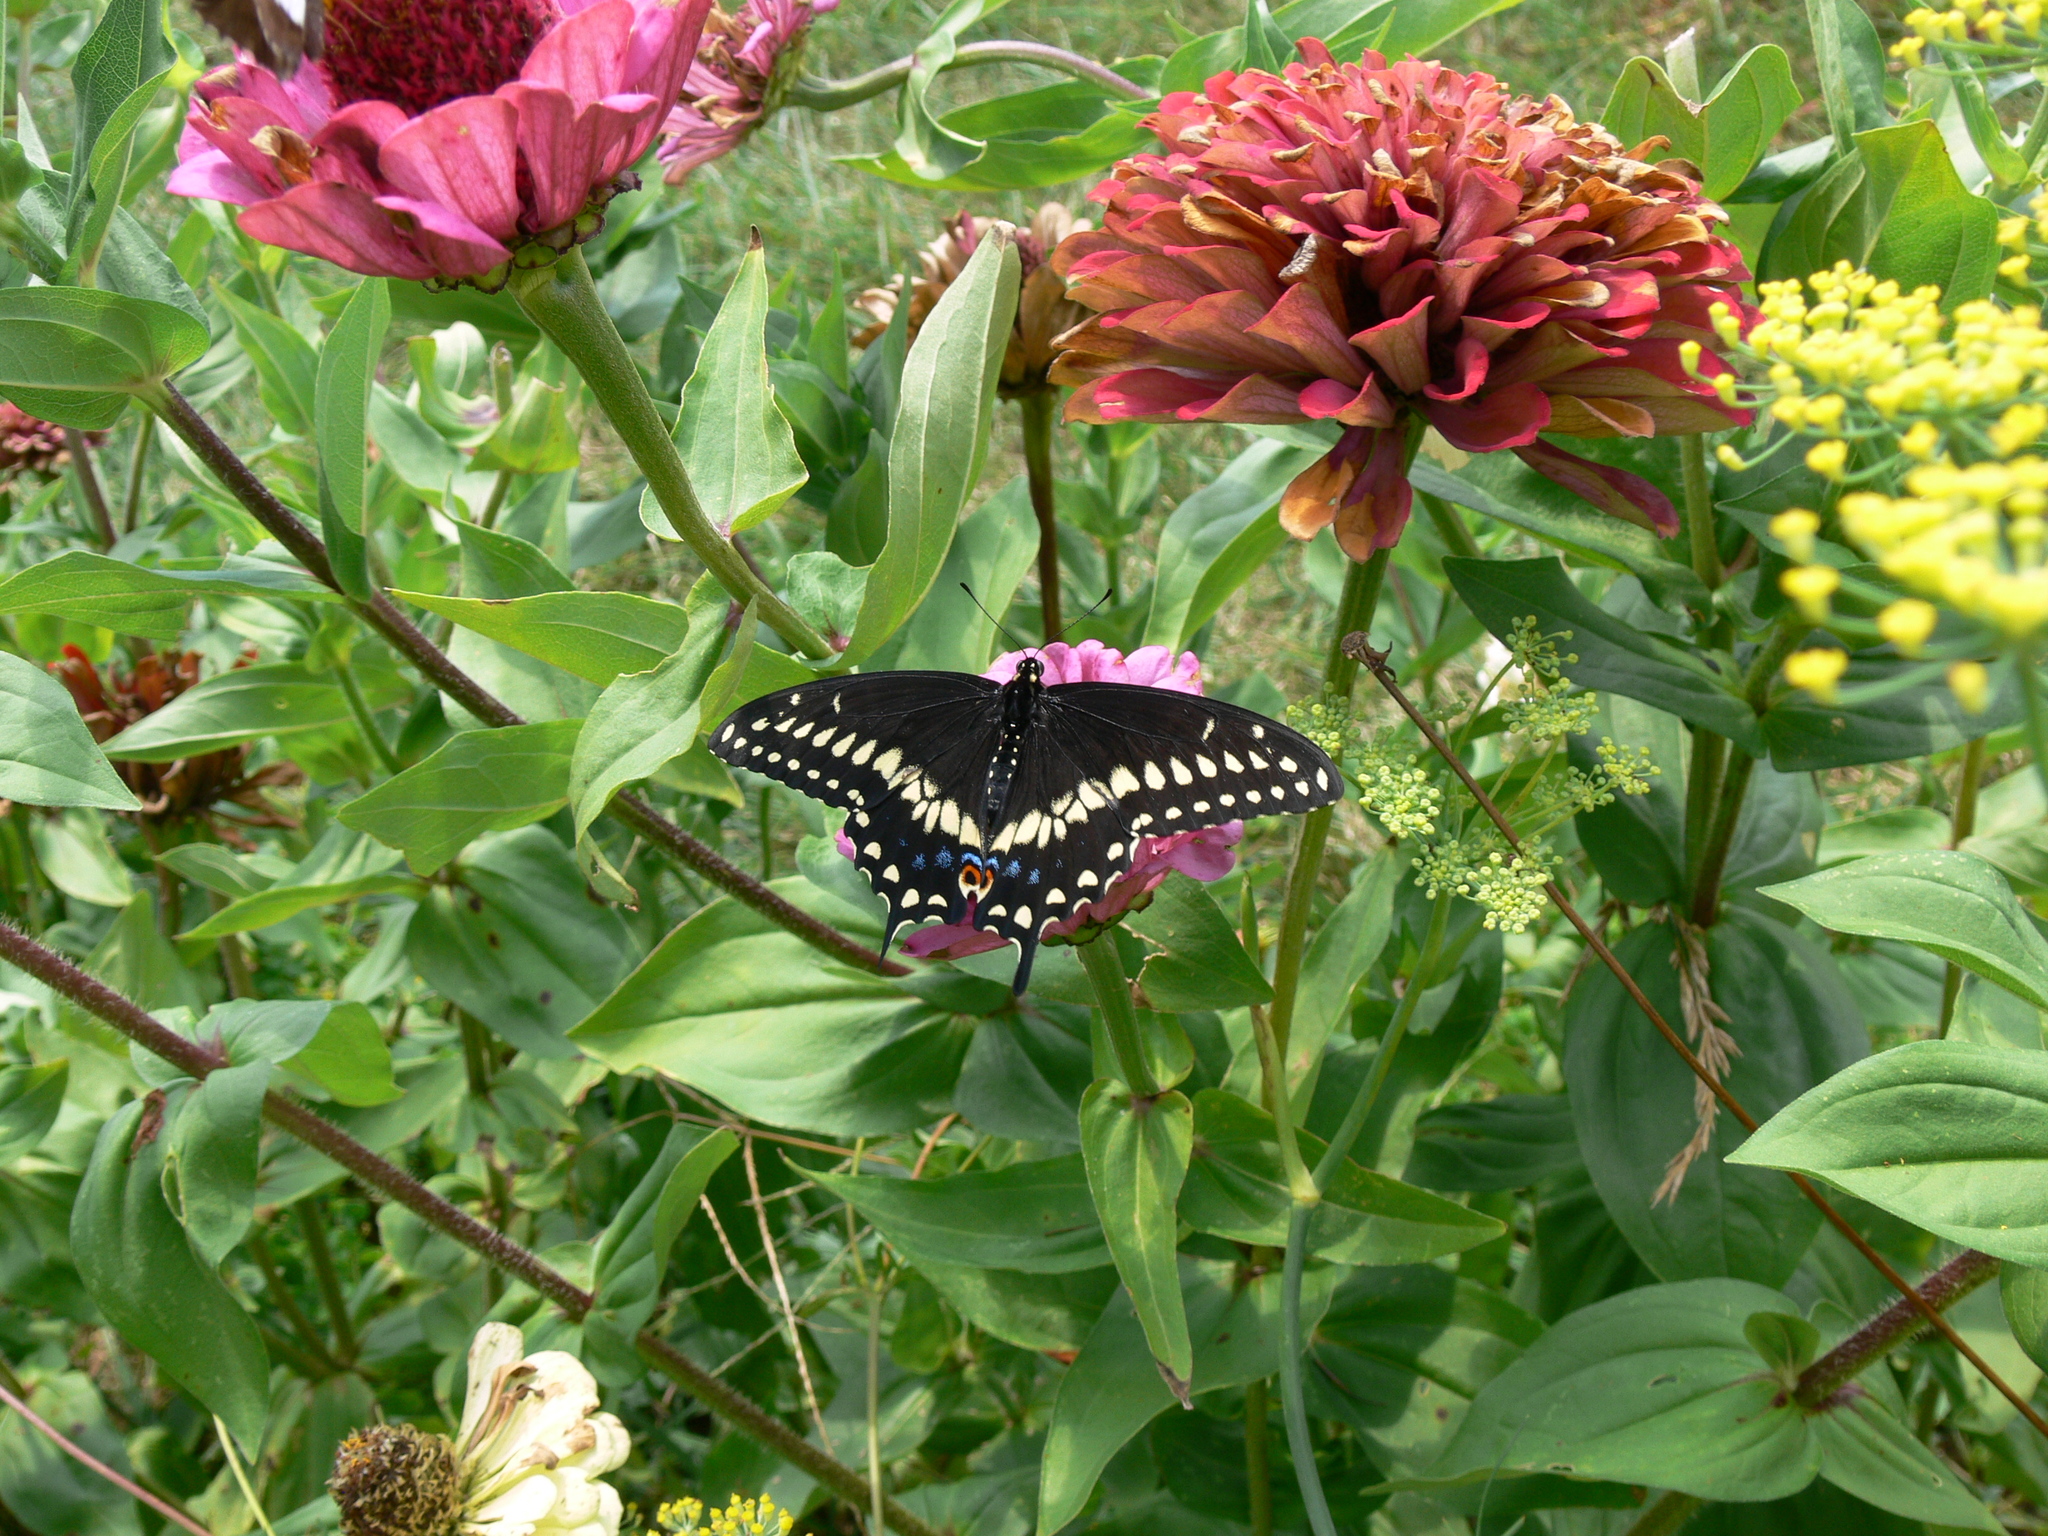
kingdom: Animalia
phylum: Arthropoda
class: Insecta
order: Lepidoptera
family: Papilionidae
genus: Papilio
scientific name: Papilio polyxenes
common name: Black swallowtail
